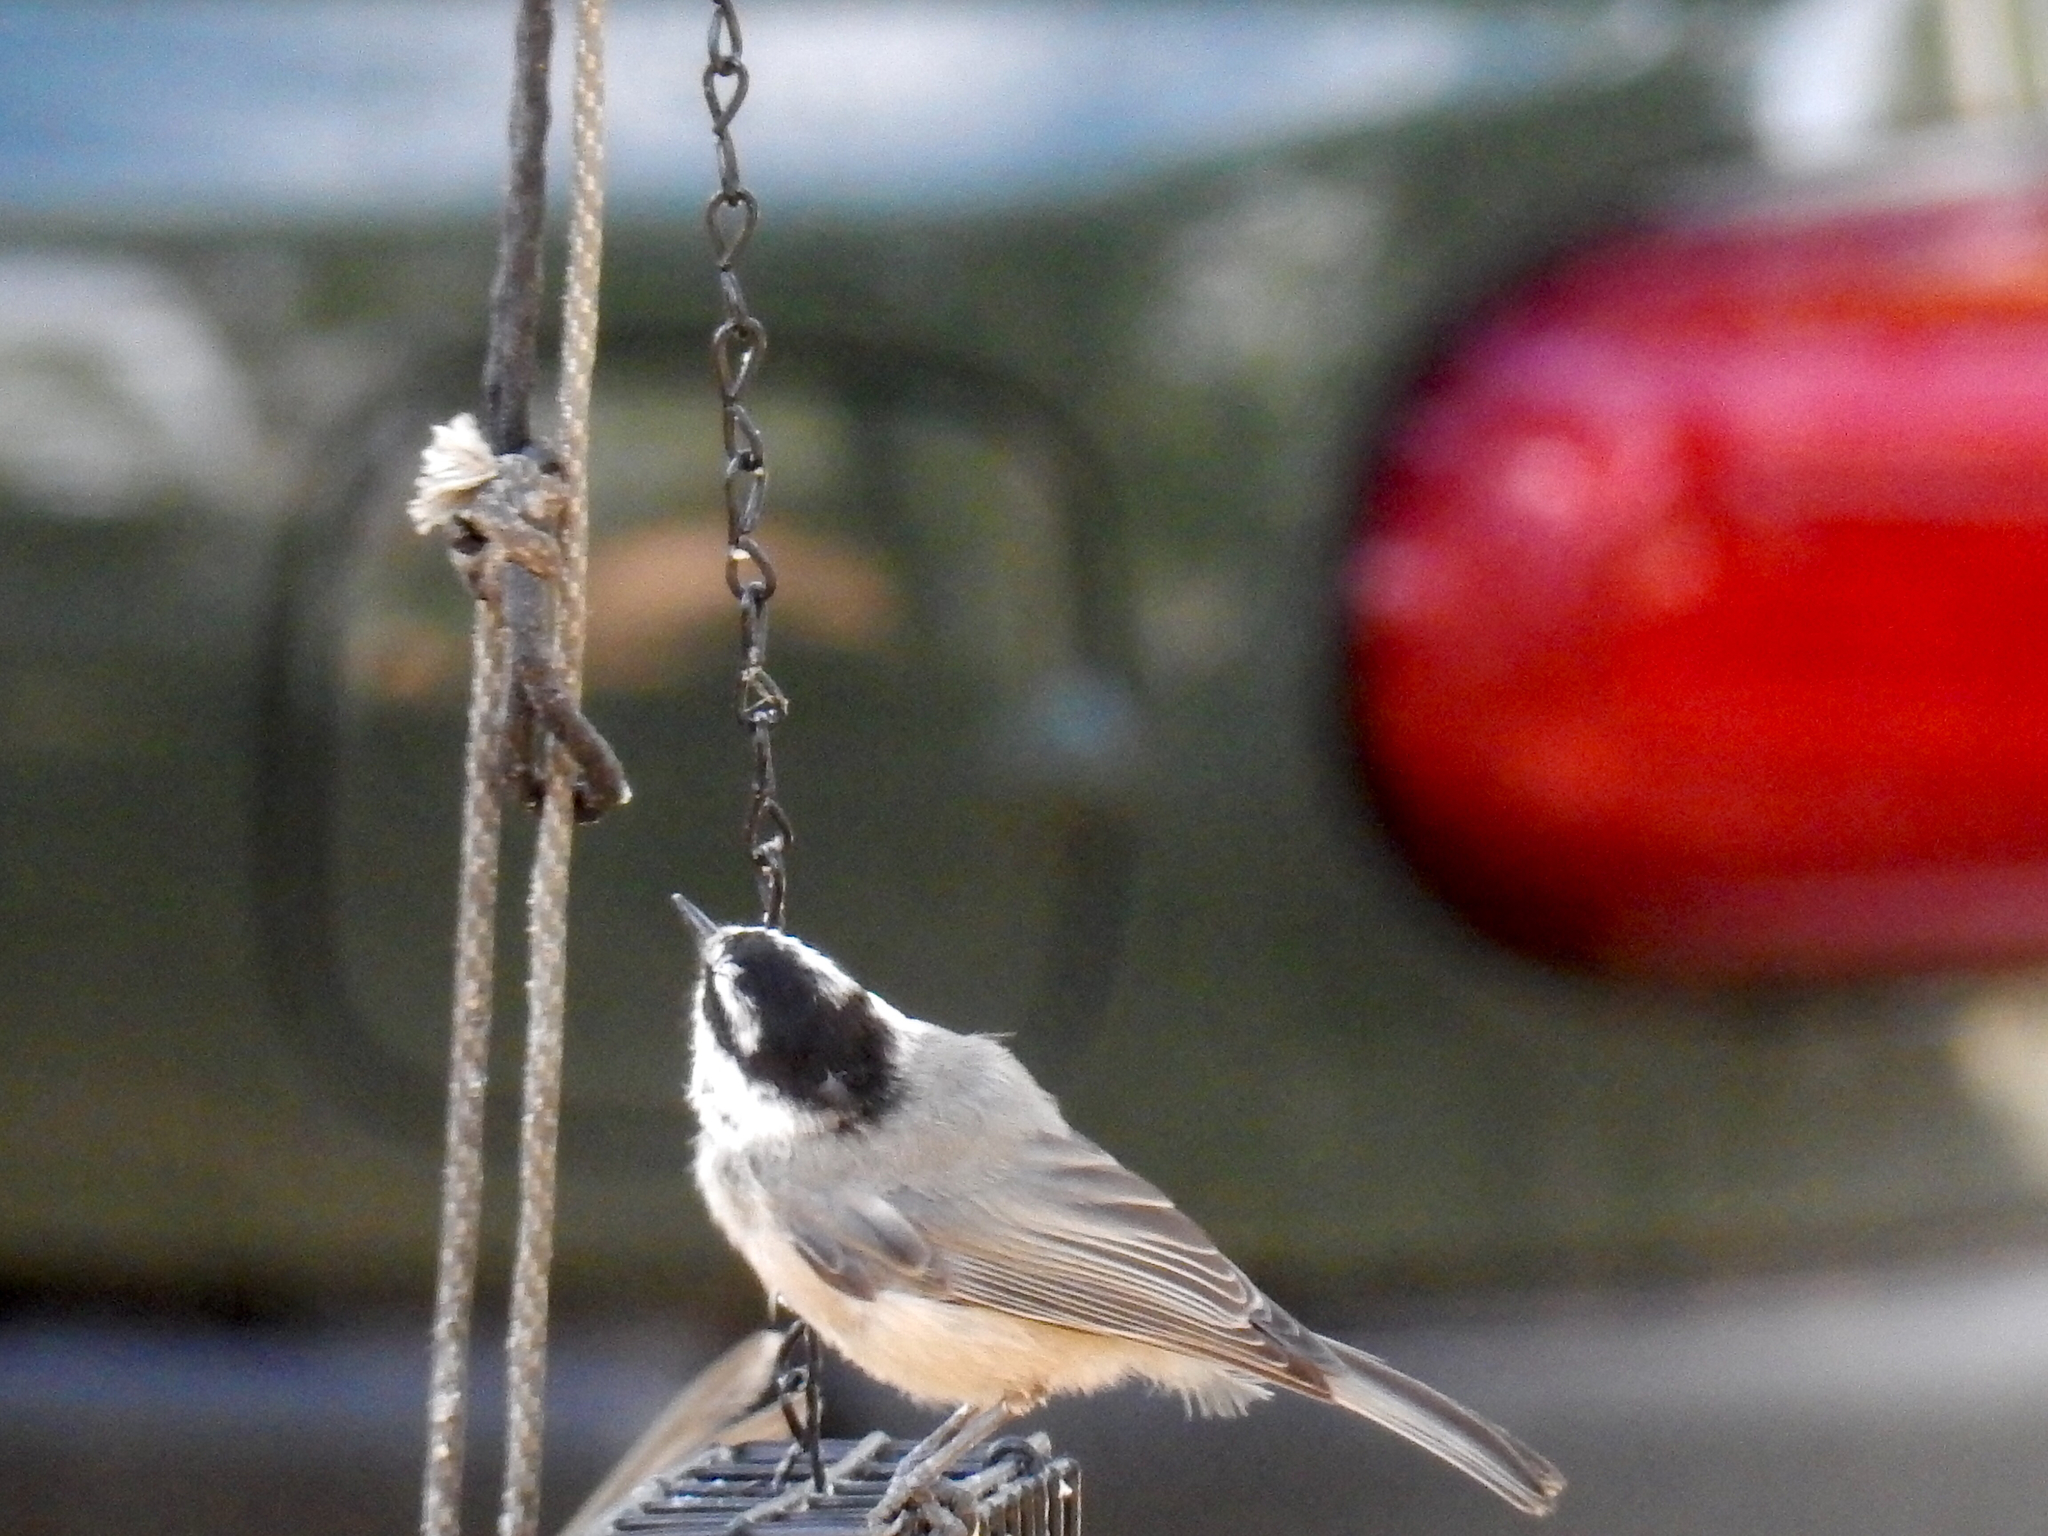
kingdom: Animalia
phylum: Chordata
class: Aves
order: Passeriformes
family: Paridae
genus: Poecile
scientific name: Poecile gambeli
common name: Mountain chickadee
